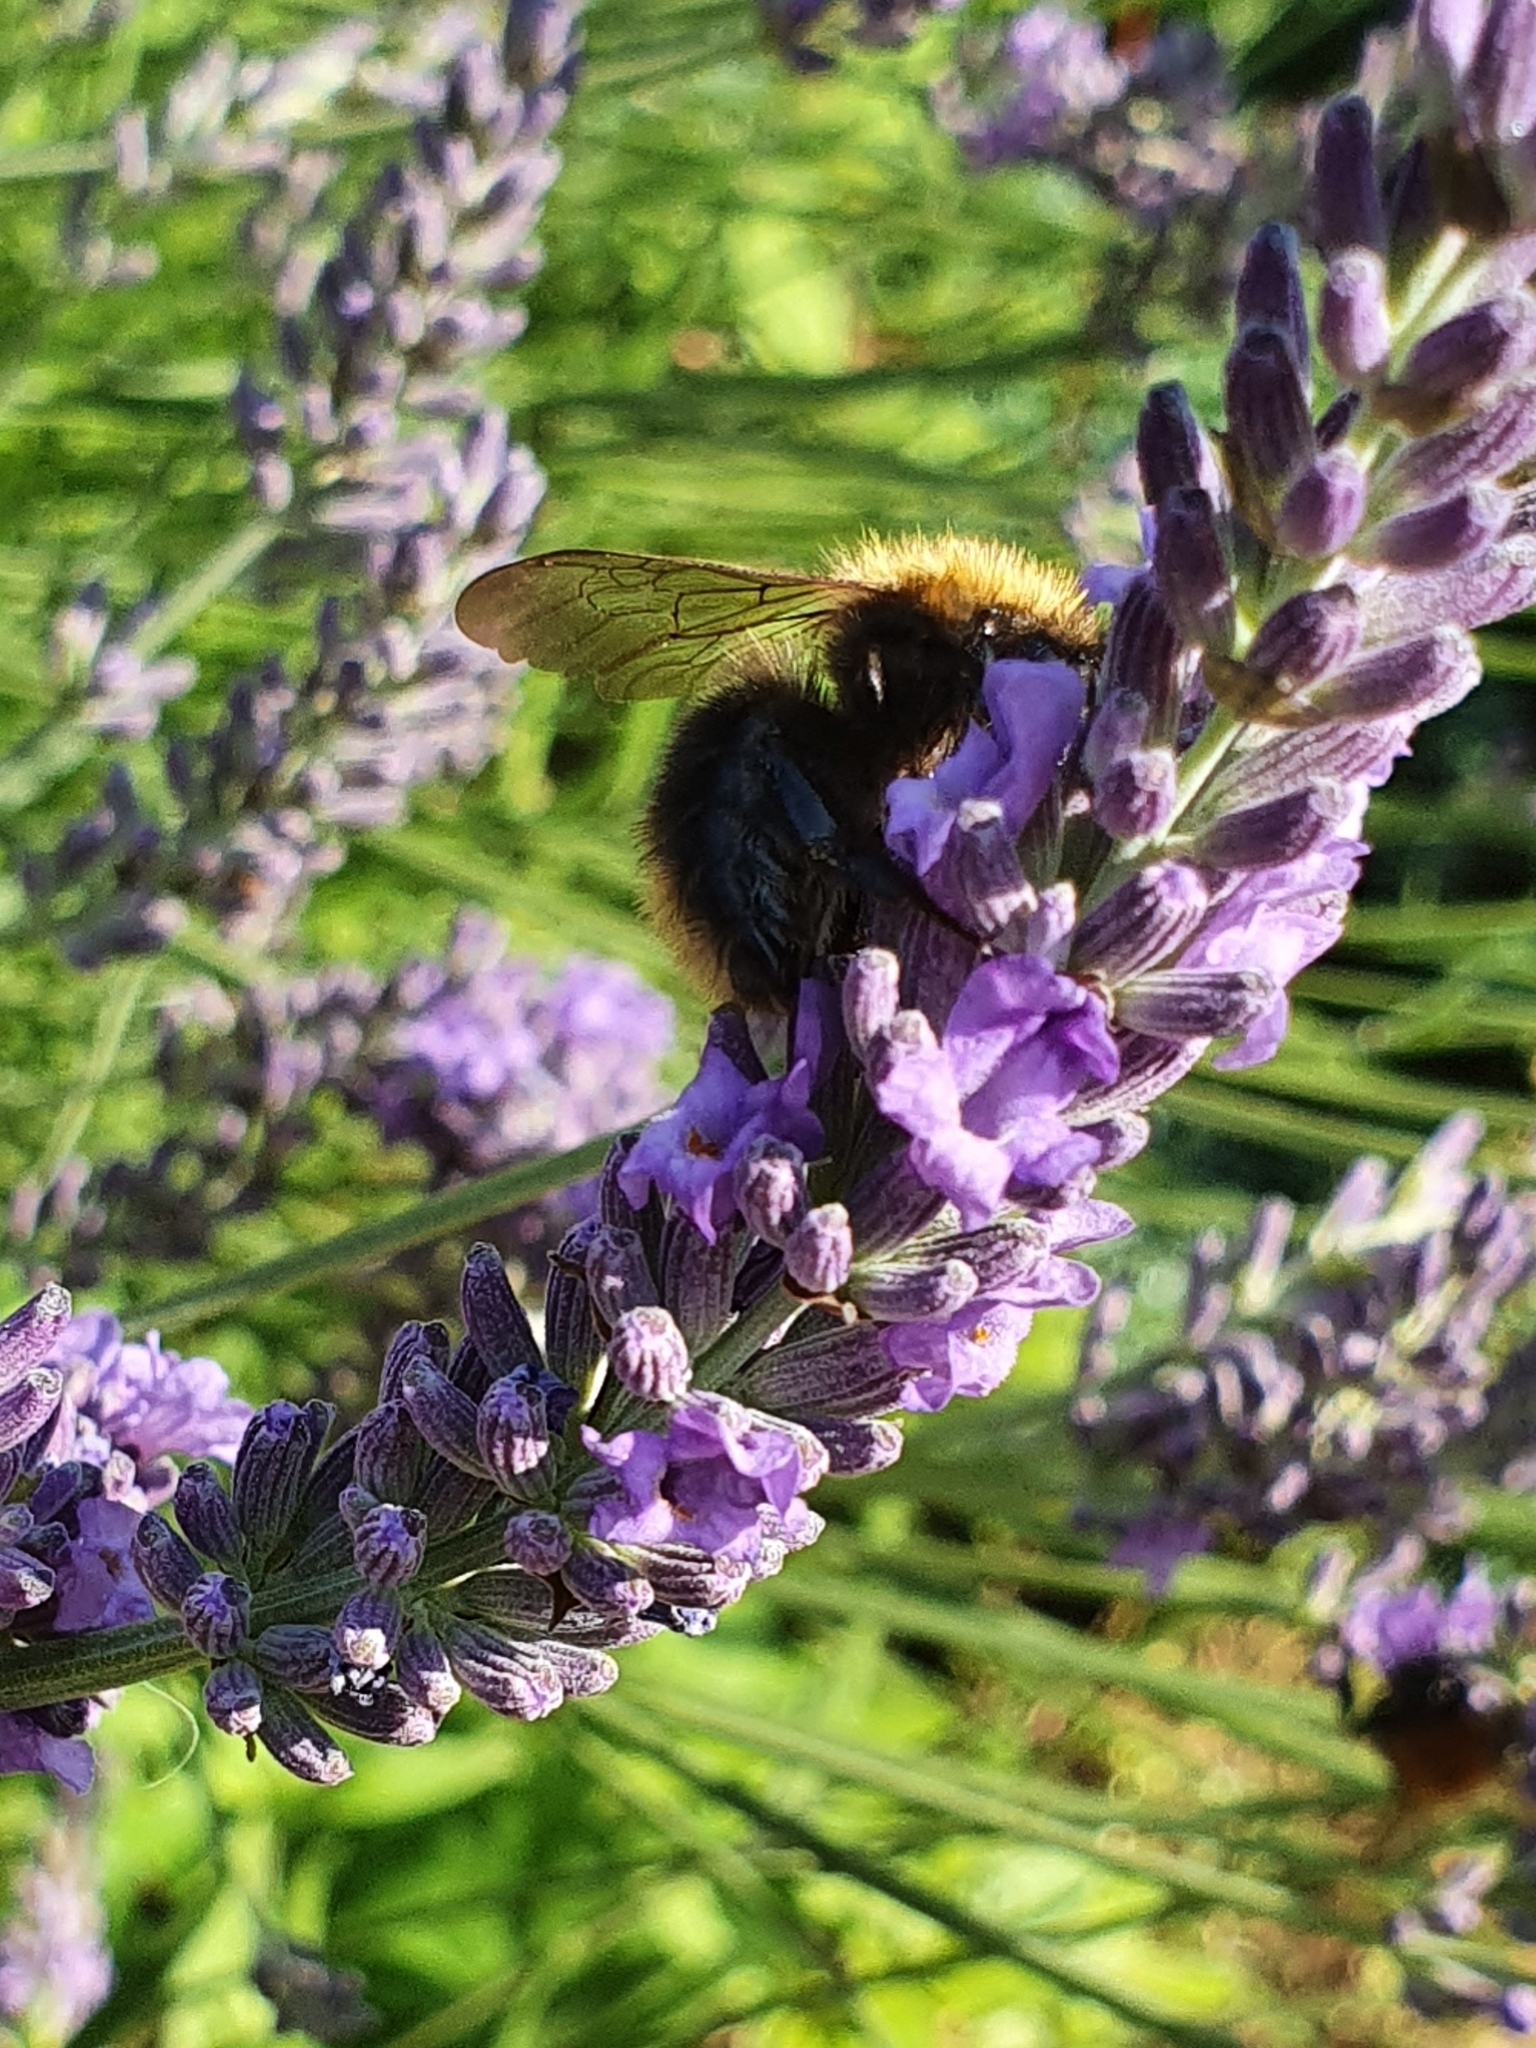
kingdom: Animalia
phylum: Arthropoda
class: Insecta
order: Hymenoptera
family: Apidae
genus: Bombus
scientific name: Bombus pascuorum
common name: Common carder bee
